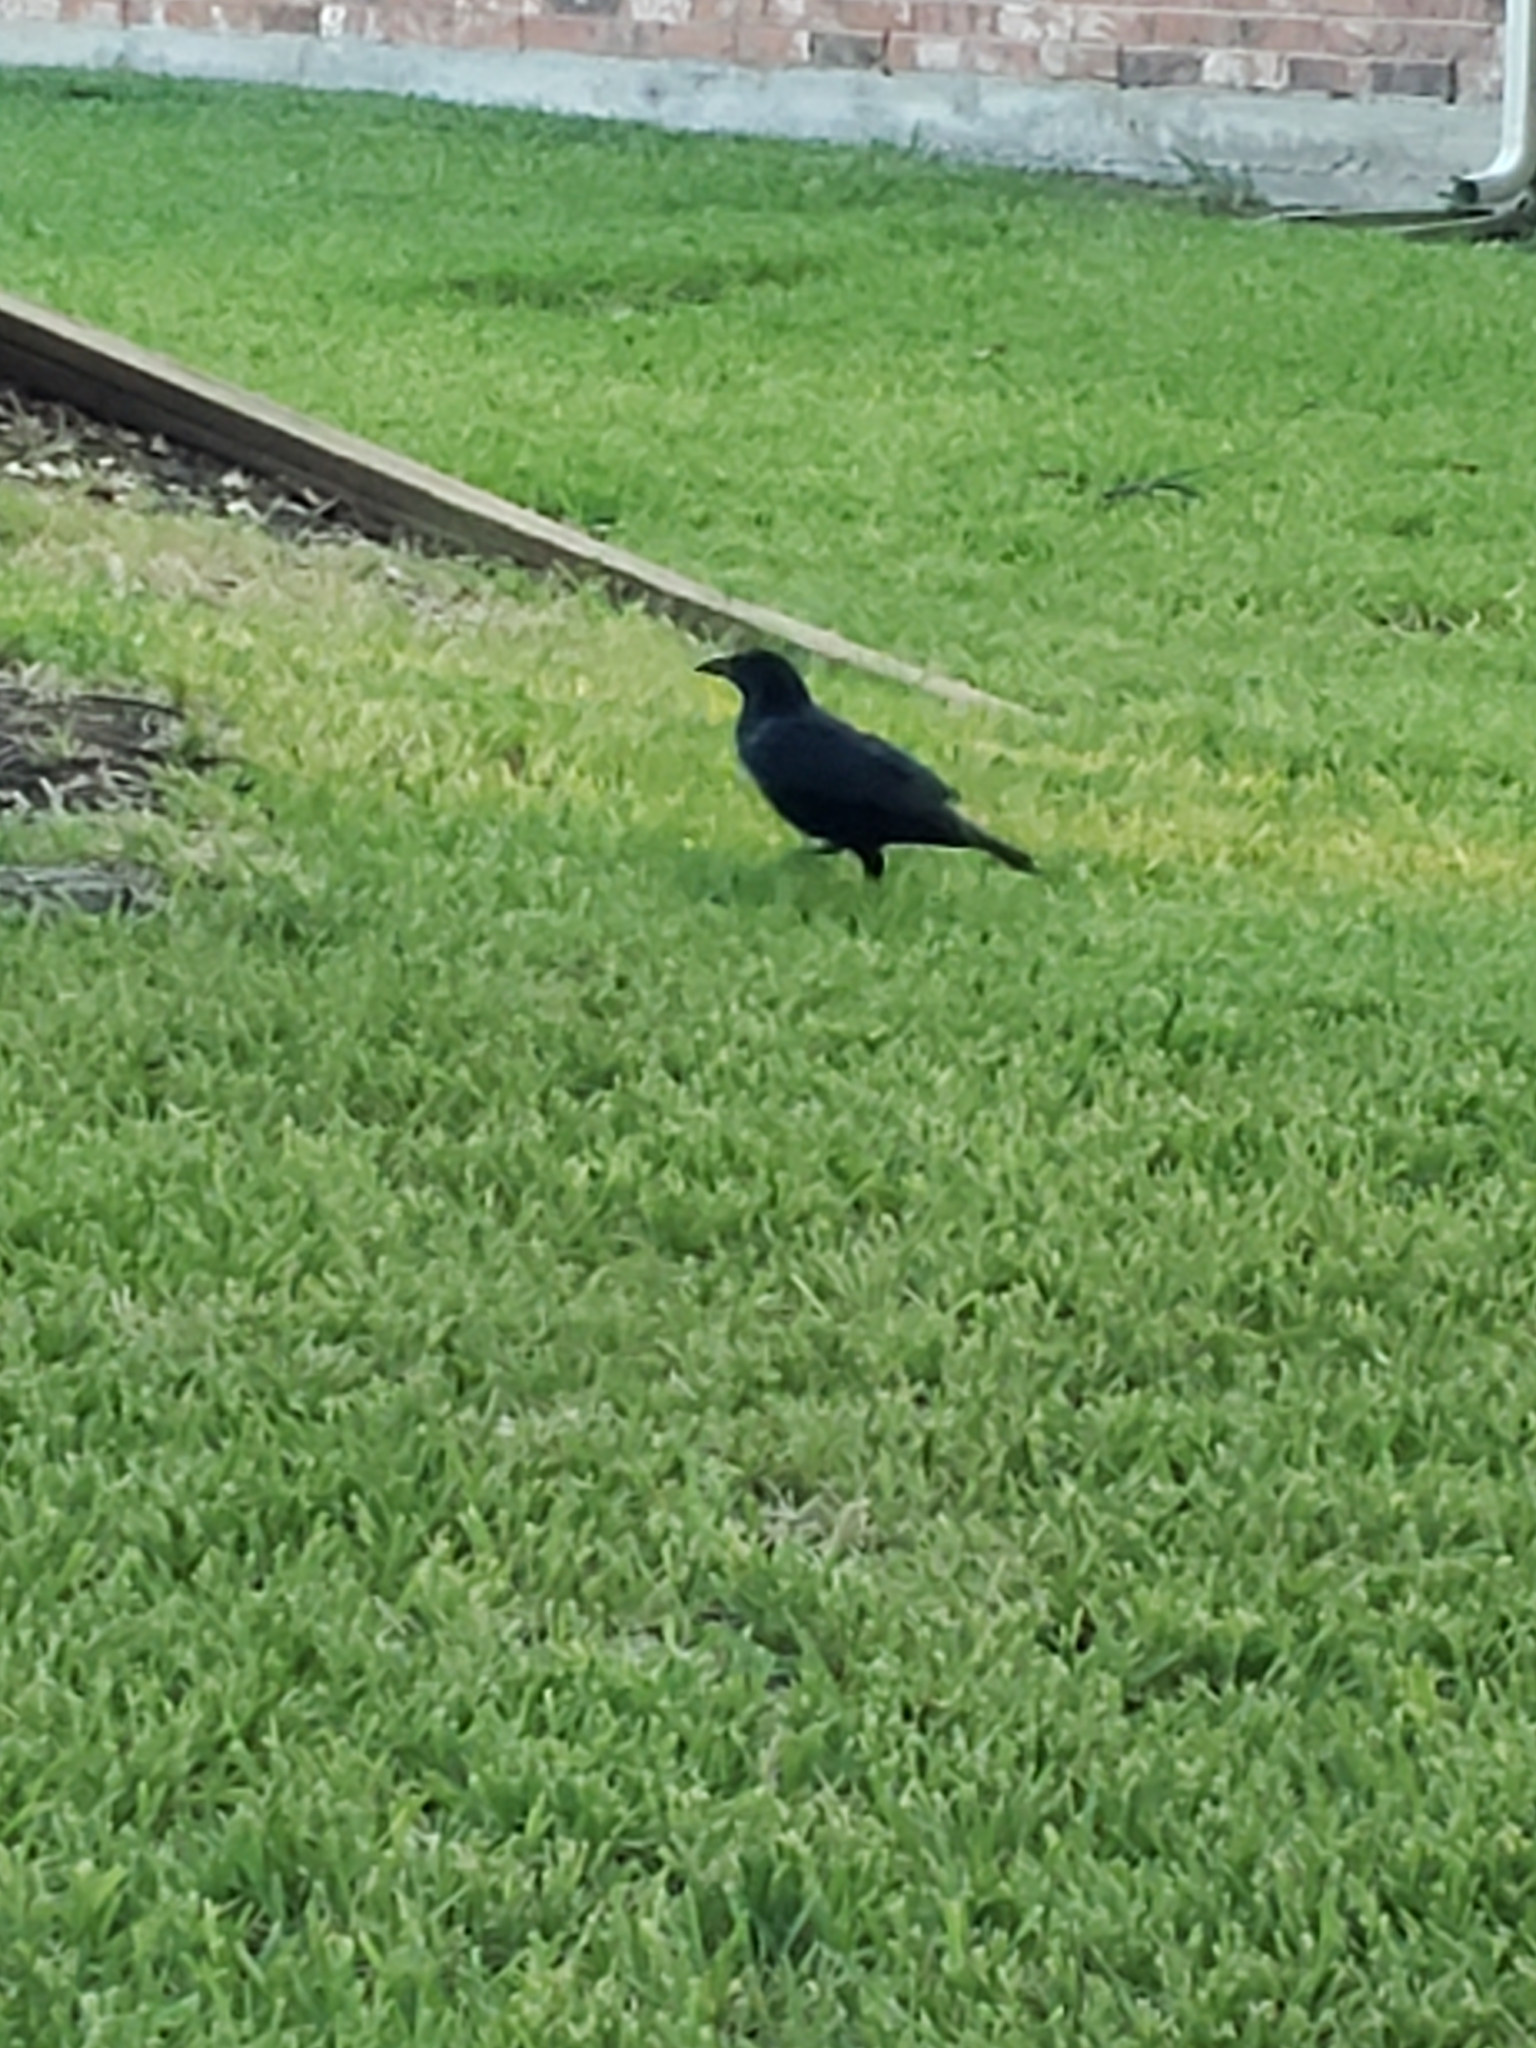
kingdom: Animalia
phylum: Chordata
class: Aves
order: Passeriformes
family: Corvidae
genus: Corvus
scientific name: Corvus brachyrhynchos
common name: American crow
